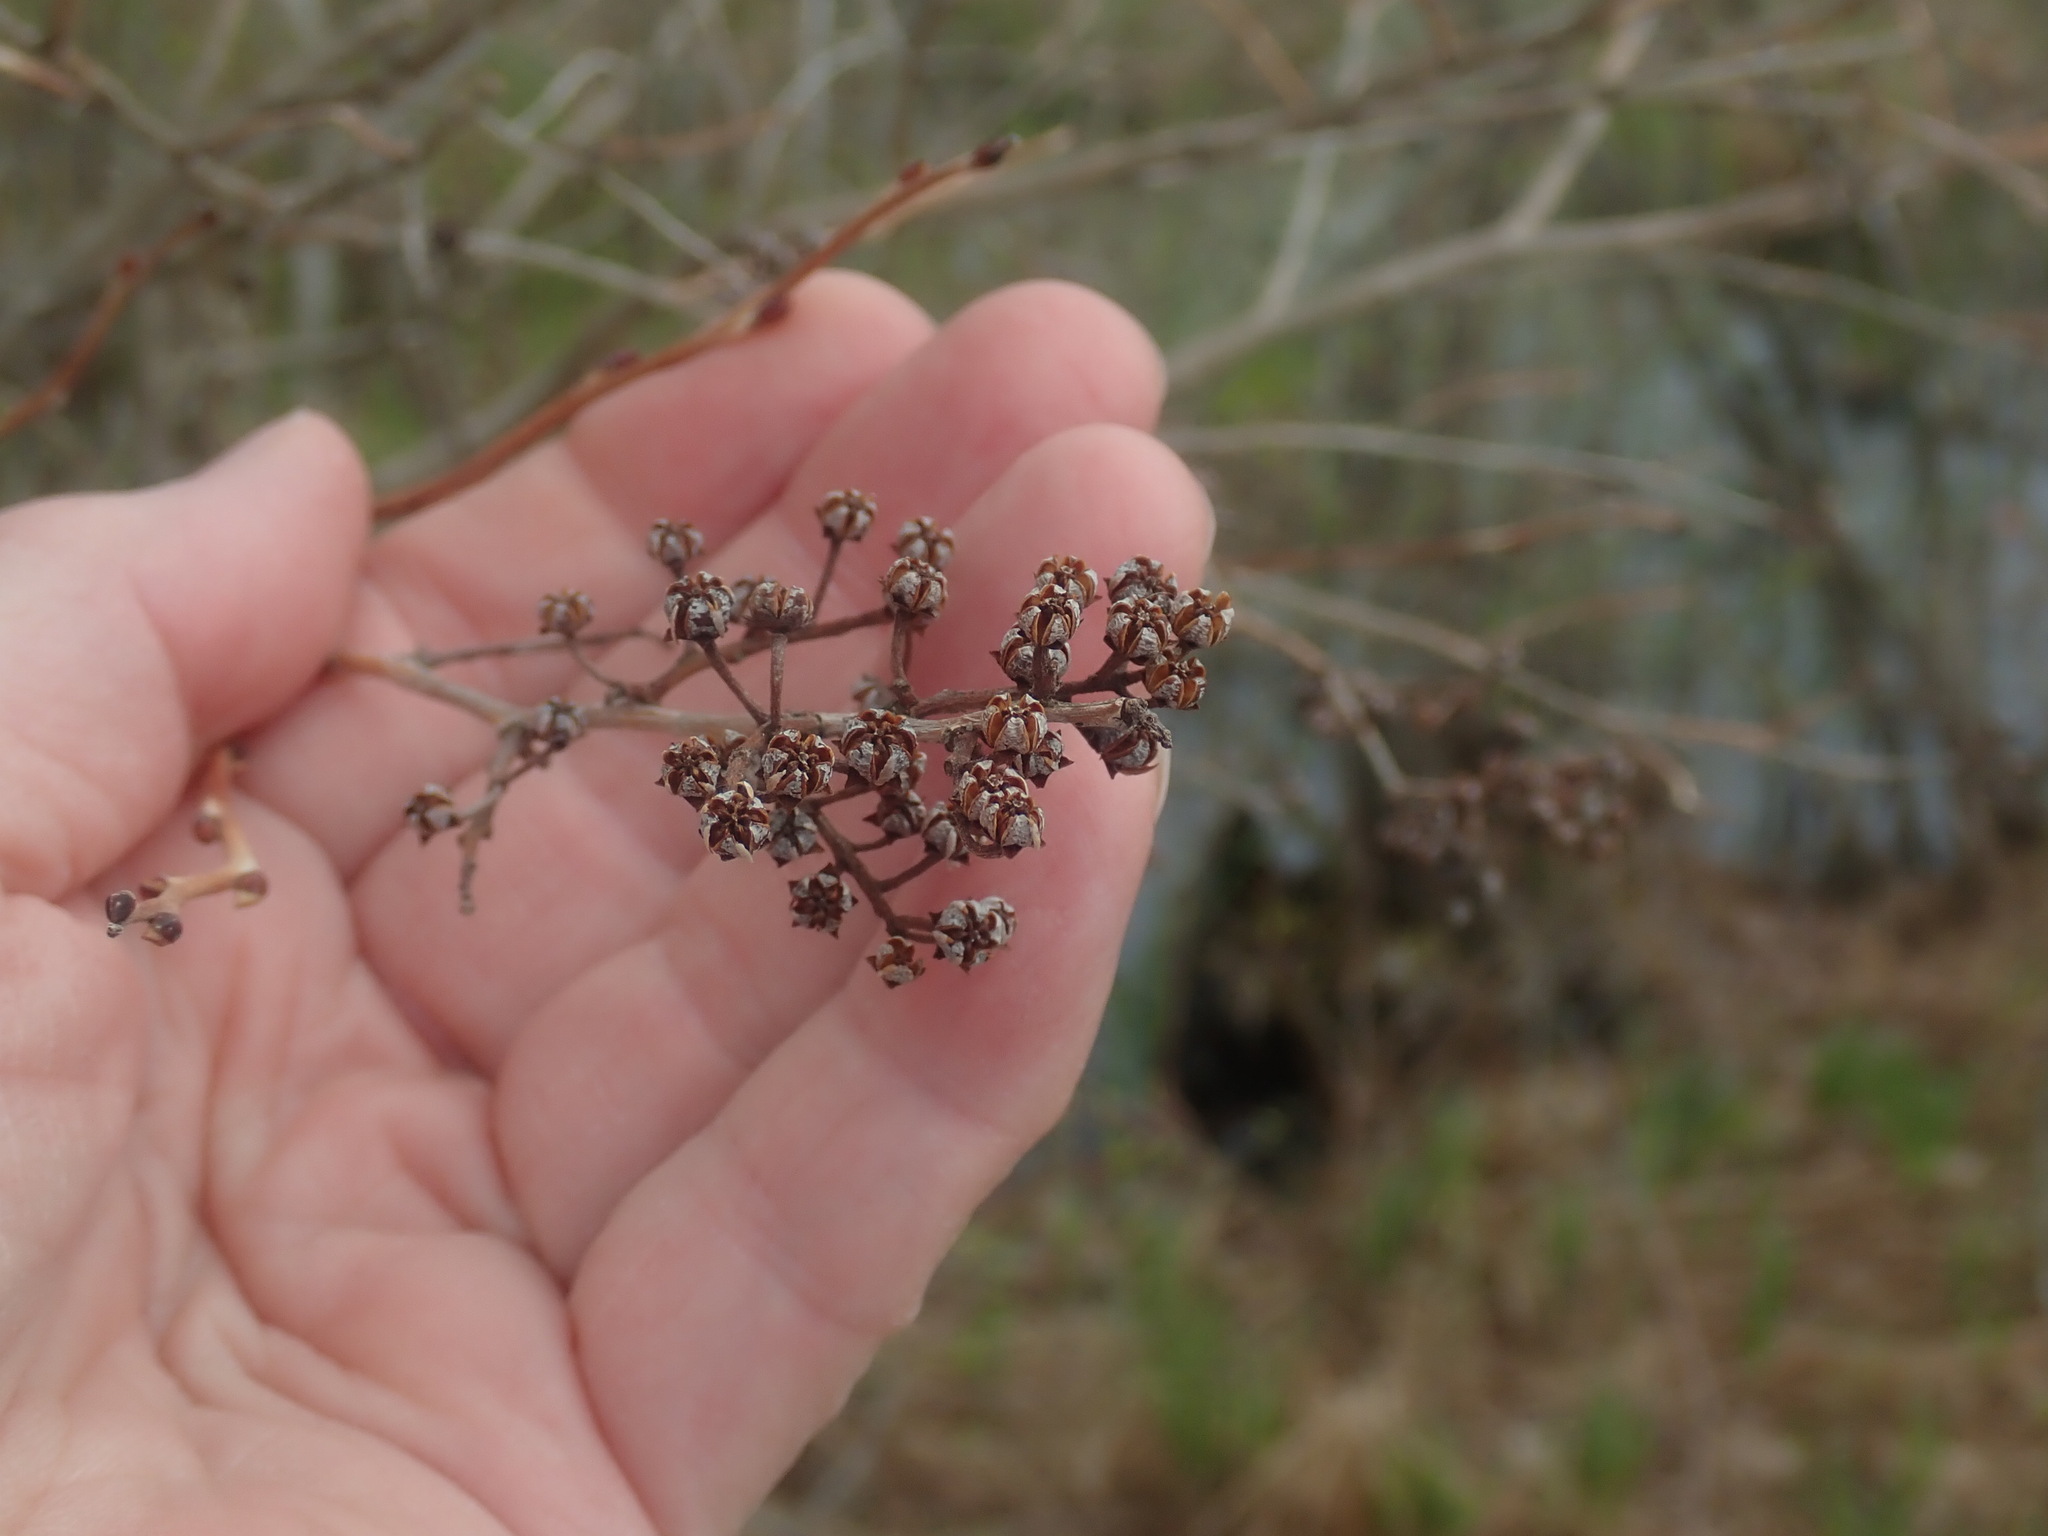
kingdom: Plantae
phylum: Tracheophyta
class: Magnoliopsida
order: Ericales
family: Ericaceae
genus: Lyonia
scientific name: Lyonia ligustrina
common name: Maleberry
